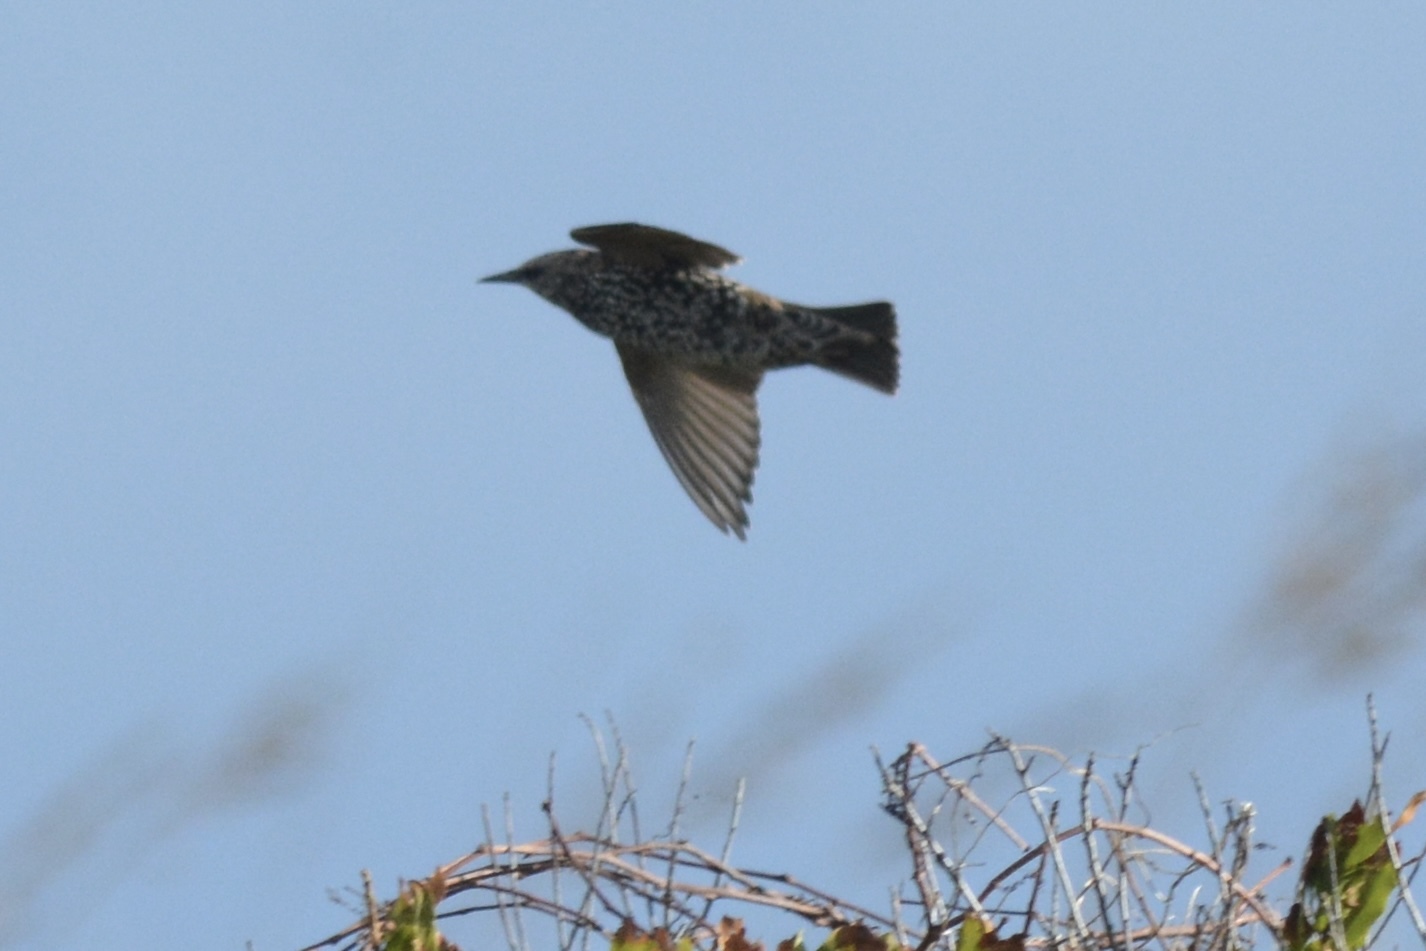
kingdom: Animalia
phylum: Chordata
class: Aves
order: Passeriformes
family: Sturnidae
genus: Sturnus
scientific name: Sturnus vulgaris
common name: Common starling
